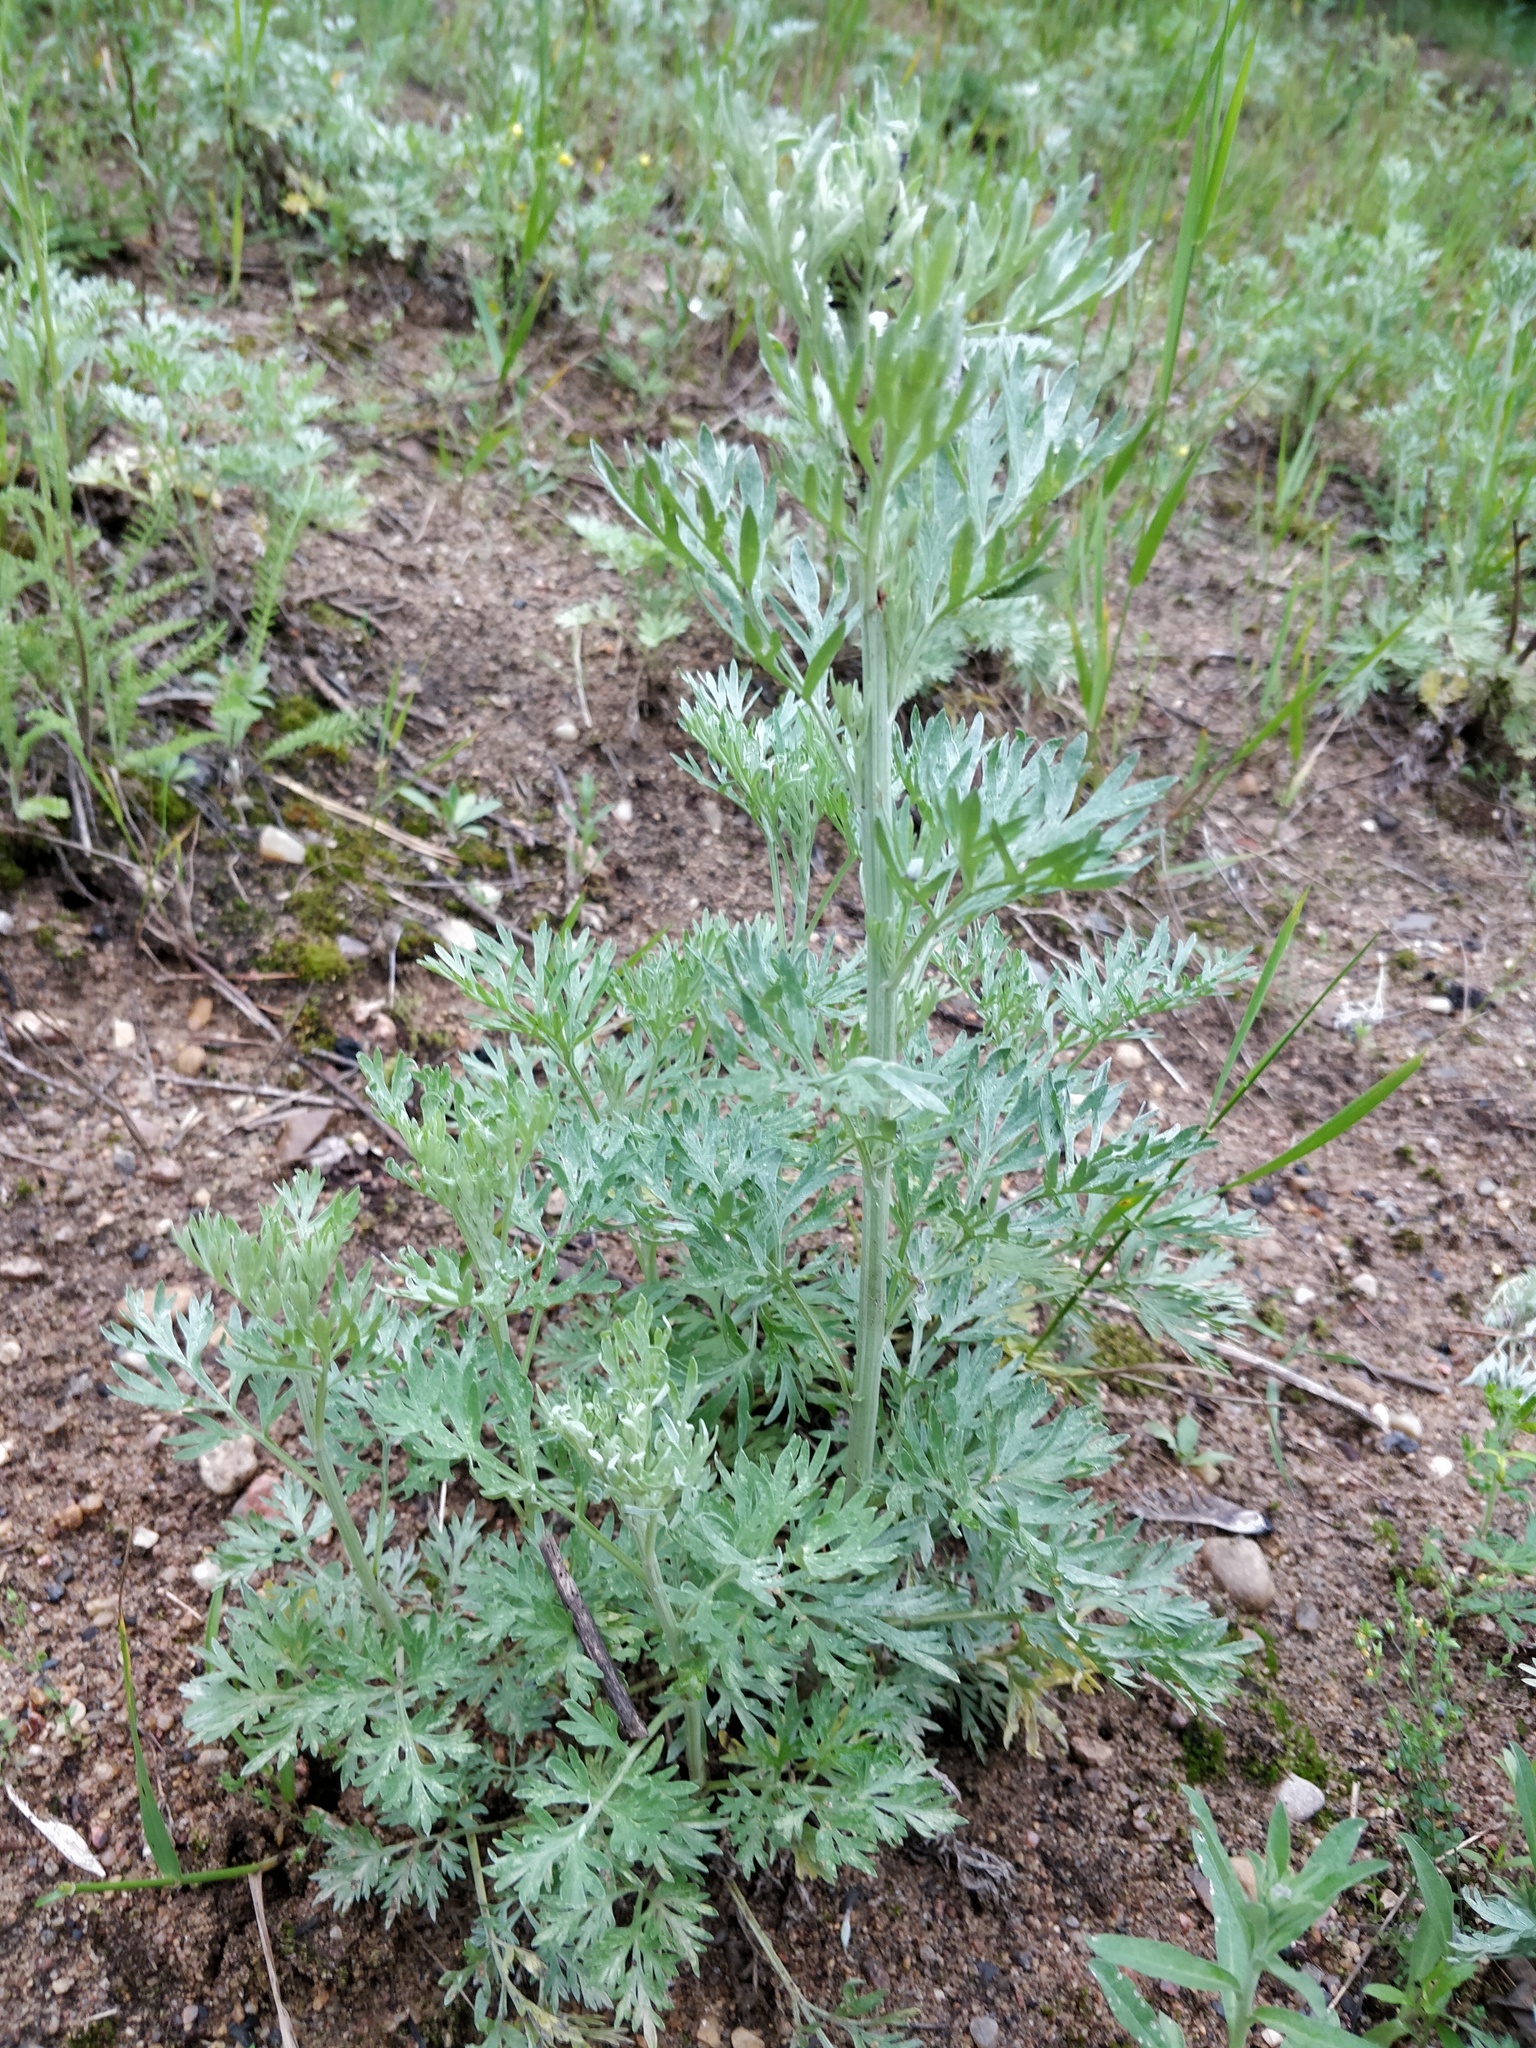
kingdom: Plantae
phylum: Tracheophyta
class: Magnoliopsida
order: Asterales
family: Asteraceae
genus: Artemisia
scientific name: Artemisia absinthium
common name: Wormwood
